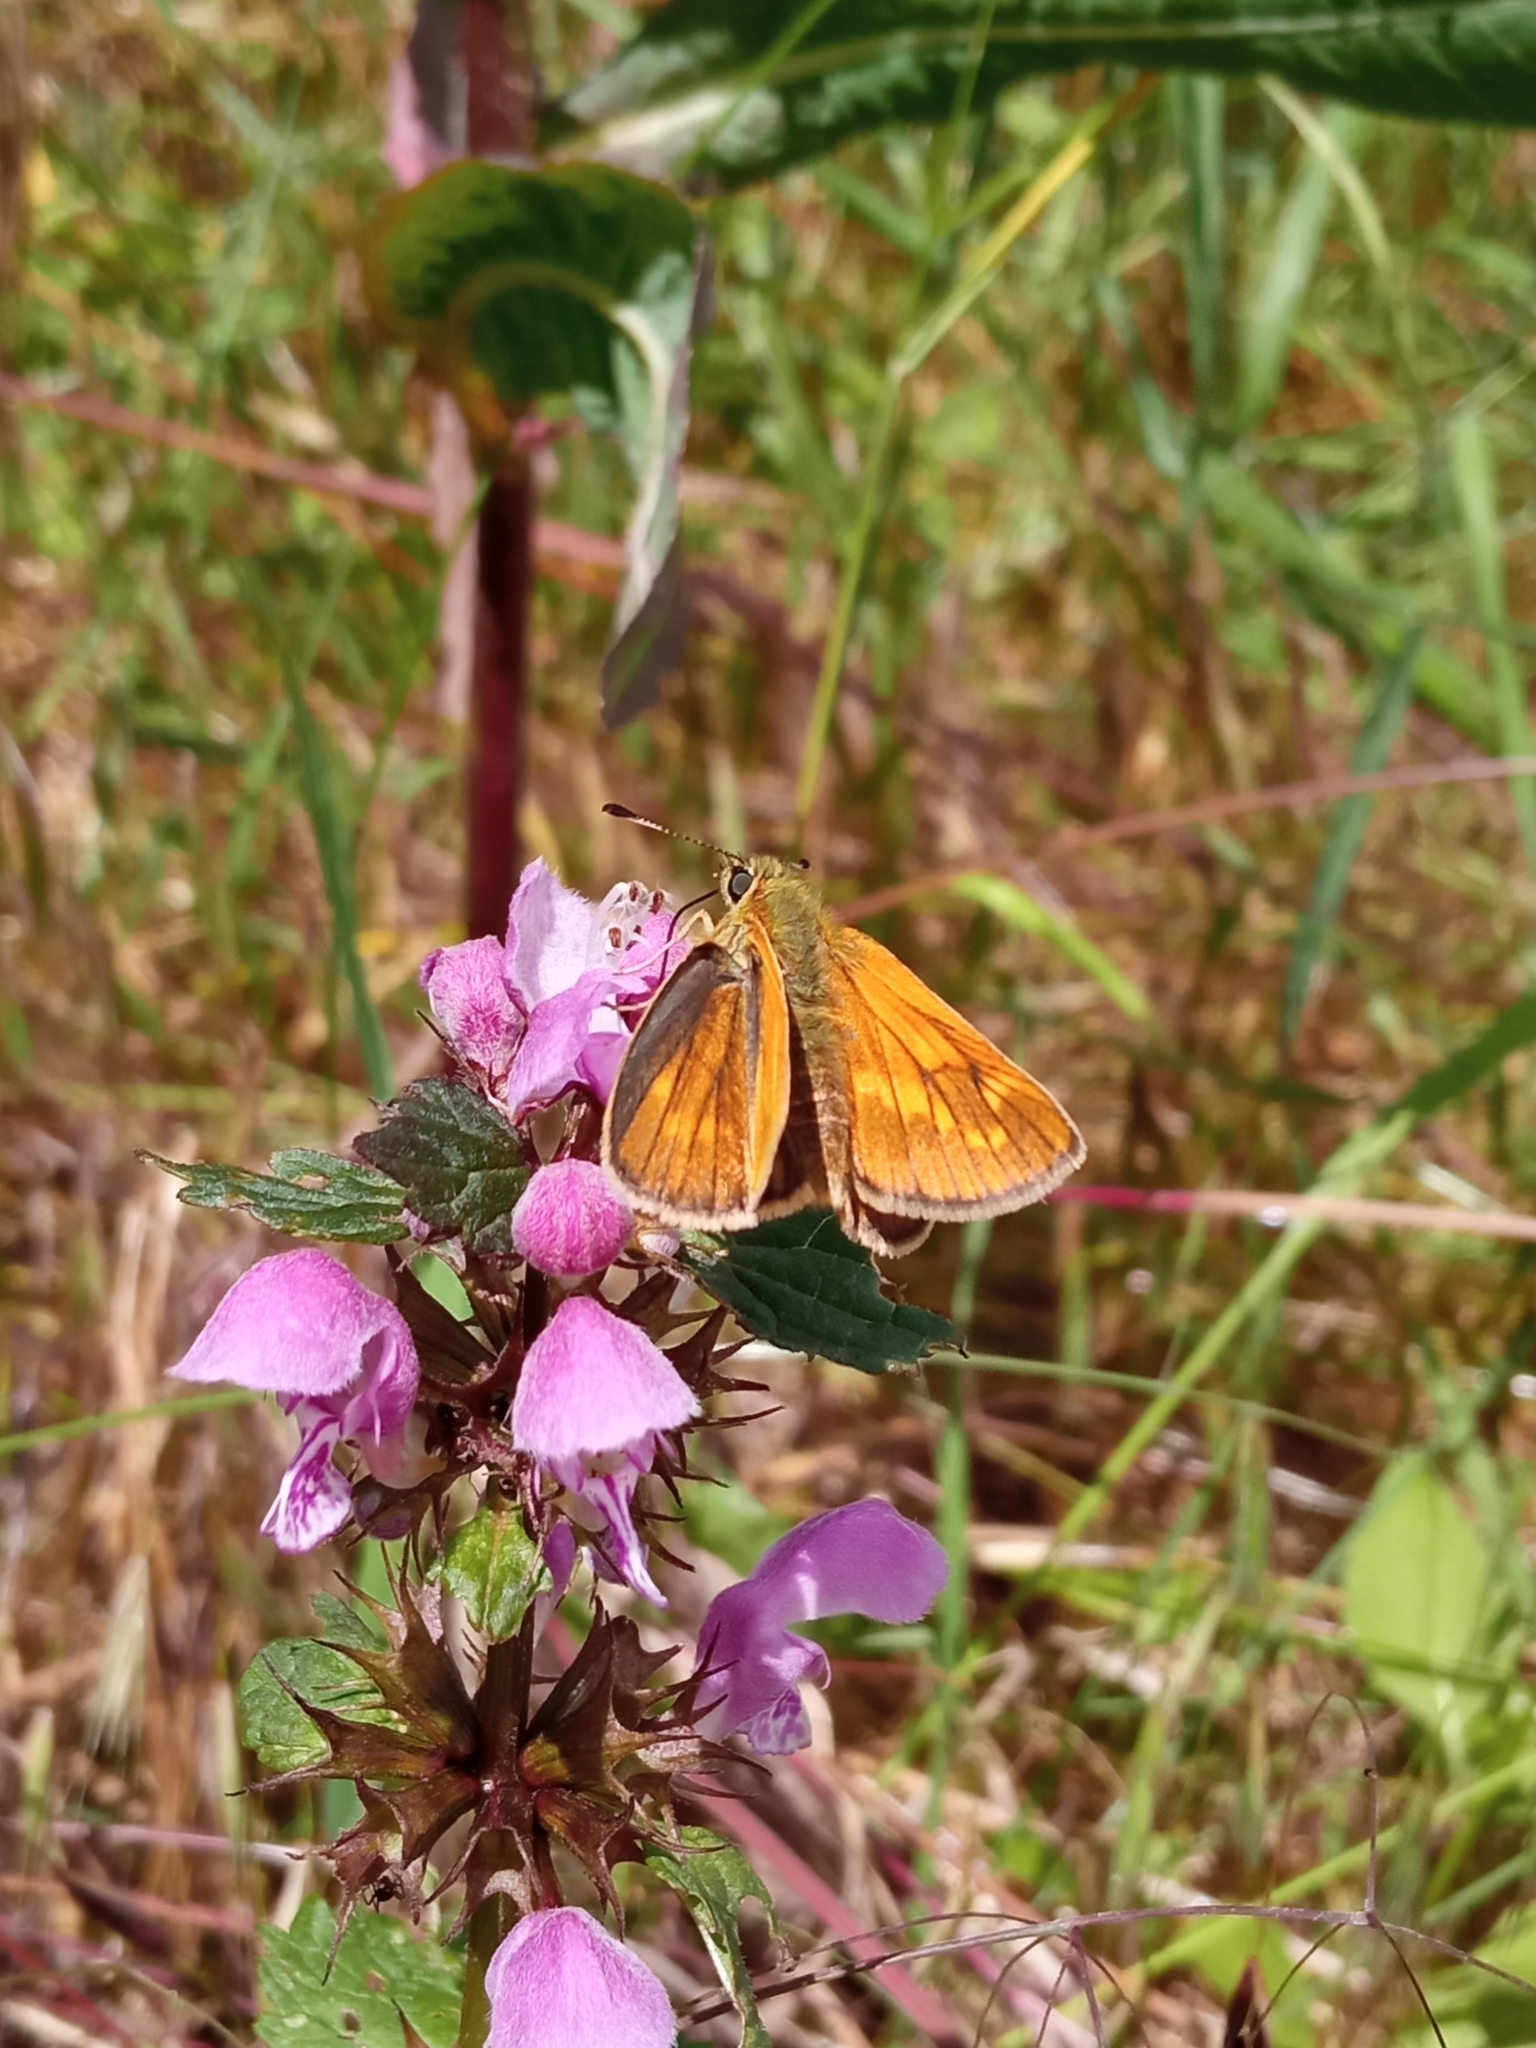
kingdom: Animalia
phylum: Arthropoda
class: Insecta
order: Lepidoptera
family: Hesperiidae
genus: Ochlodes
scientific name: Ochlodes venata
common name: Large skipper
